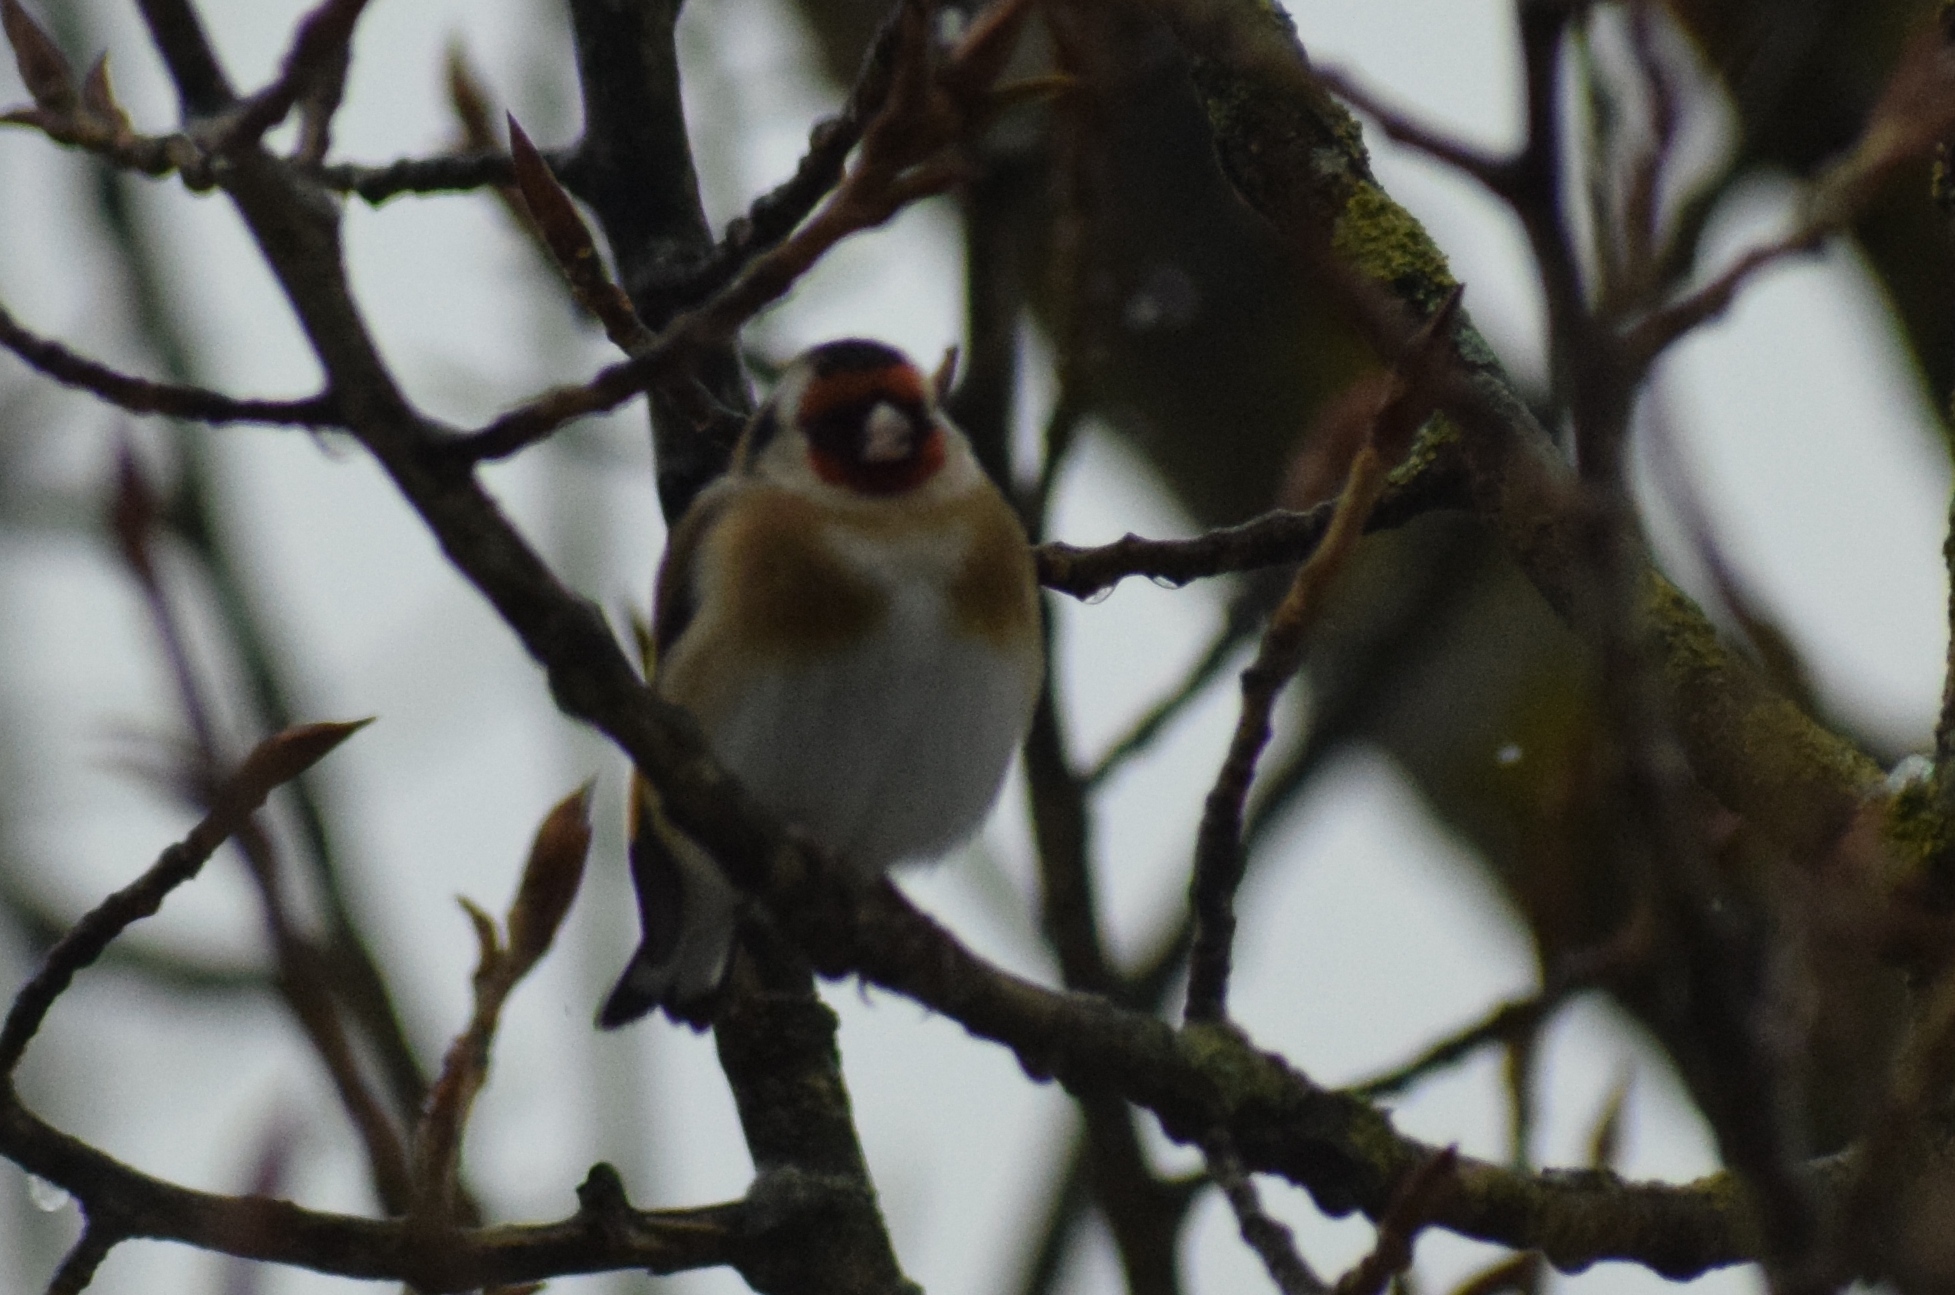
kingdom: Animalia
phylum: Chordata
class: Aves
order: Passeriformes
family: Fringillidae
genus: Carduelis
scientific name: Carduelis carduelis
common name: European goldfinch
